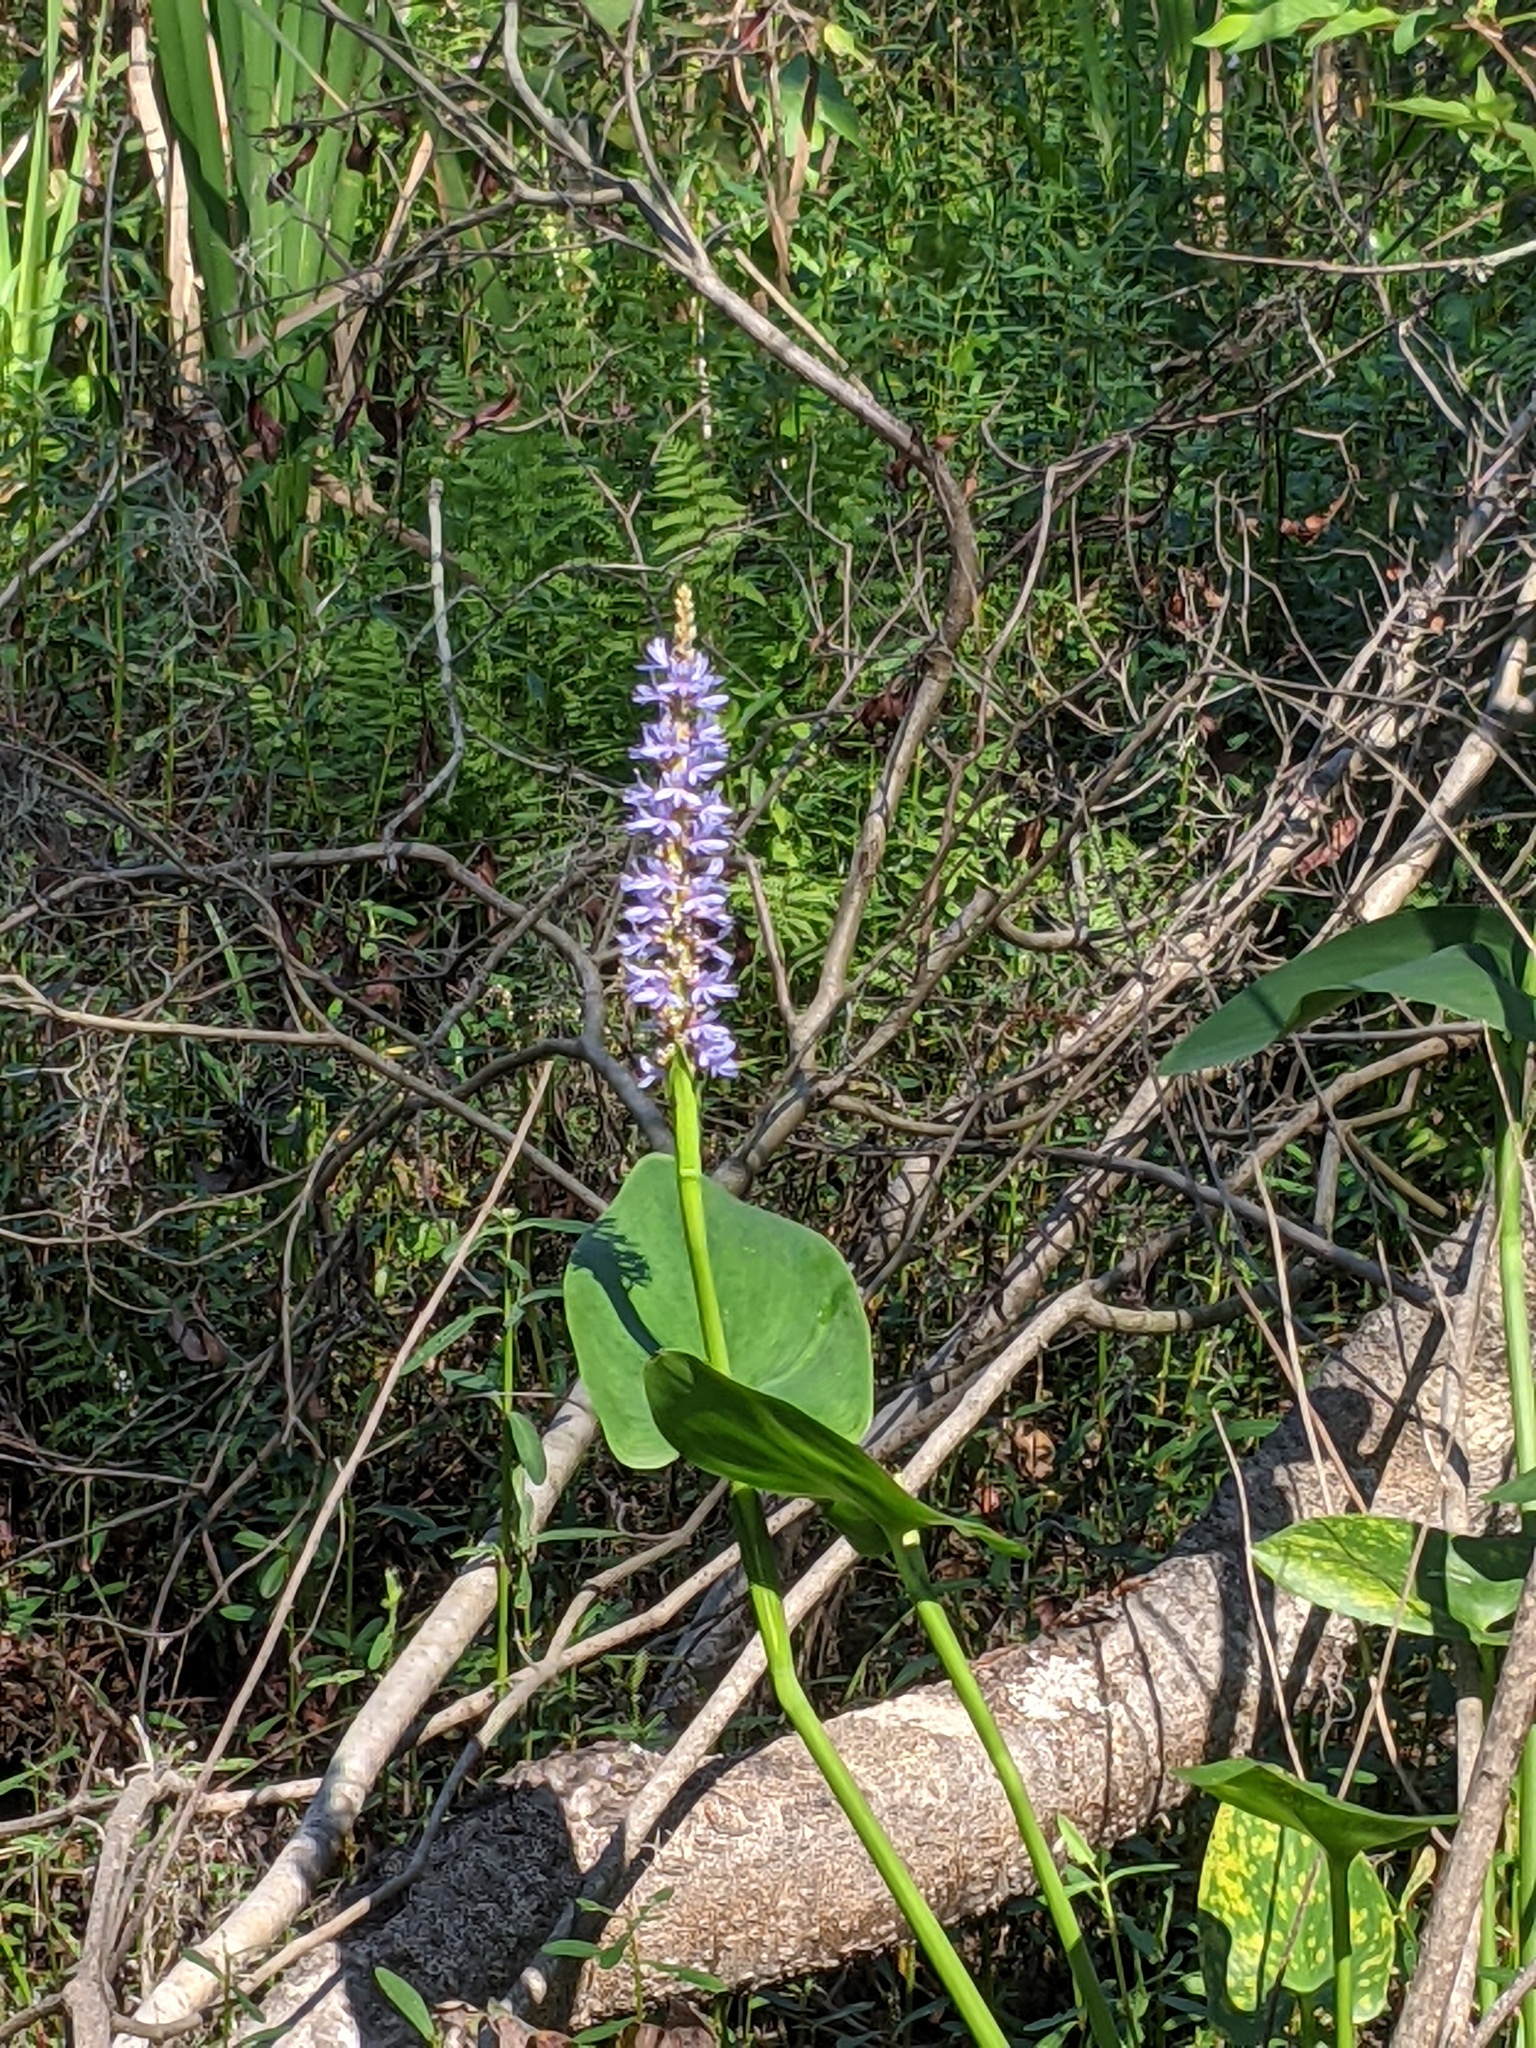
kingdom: Plantae
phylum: Tracheophyta
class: Liliopsida
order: Commelinales
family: Pontederiaceae
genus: Pontederia
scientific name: Pontederia cordata
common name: Pickerelweed
